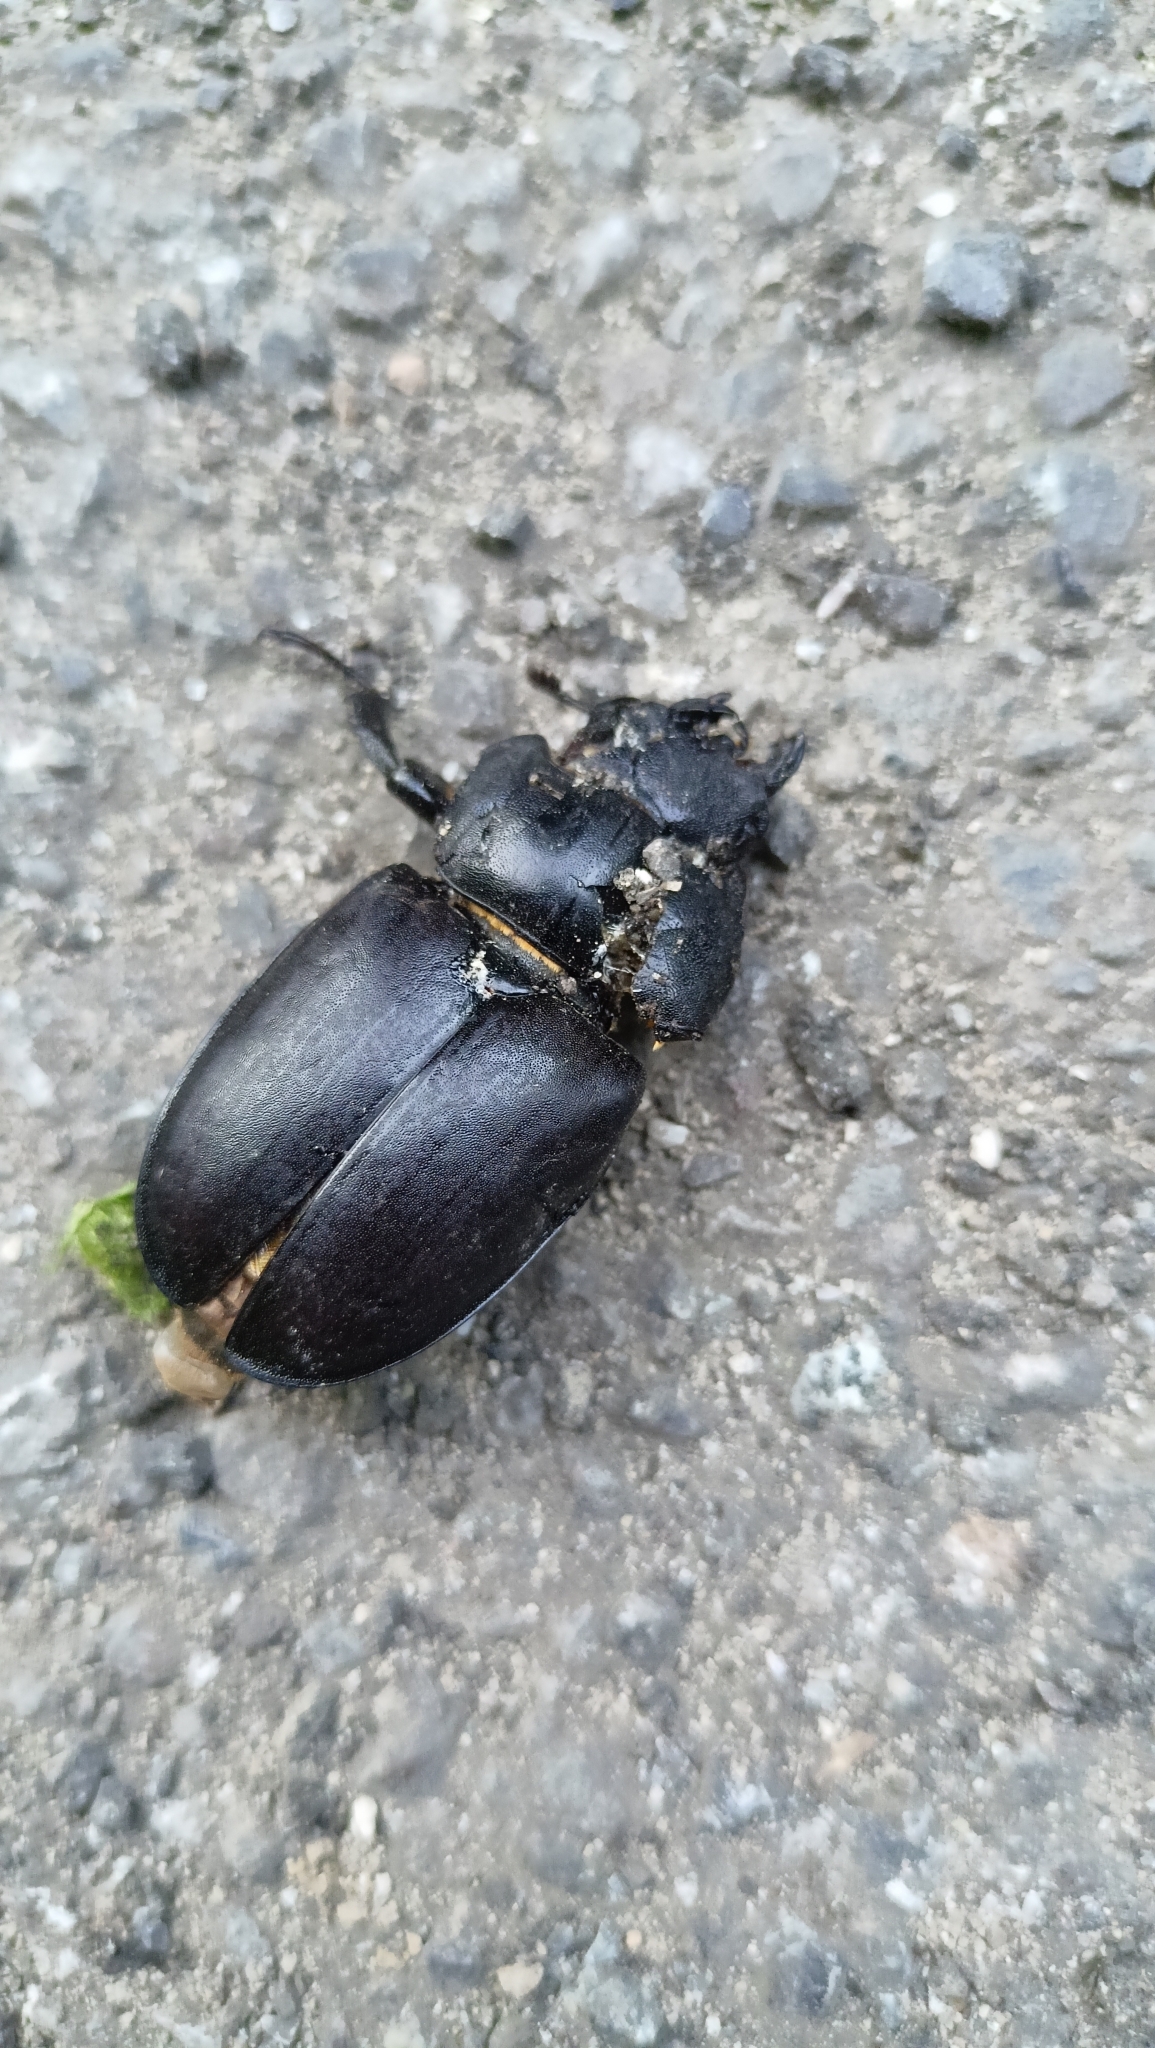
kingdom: Animalia
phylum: Arthropoda
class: Insecta
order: Coleoptera
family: Lucanidae
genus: Lucanus
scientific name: Lucanus cervus
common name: Stag beetle
